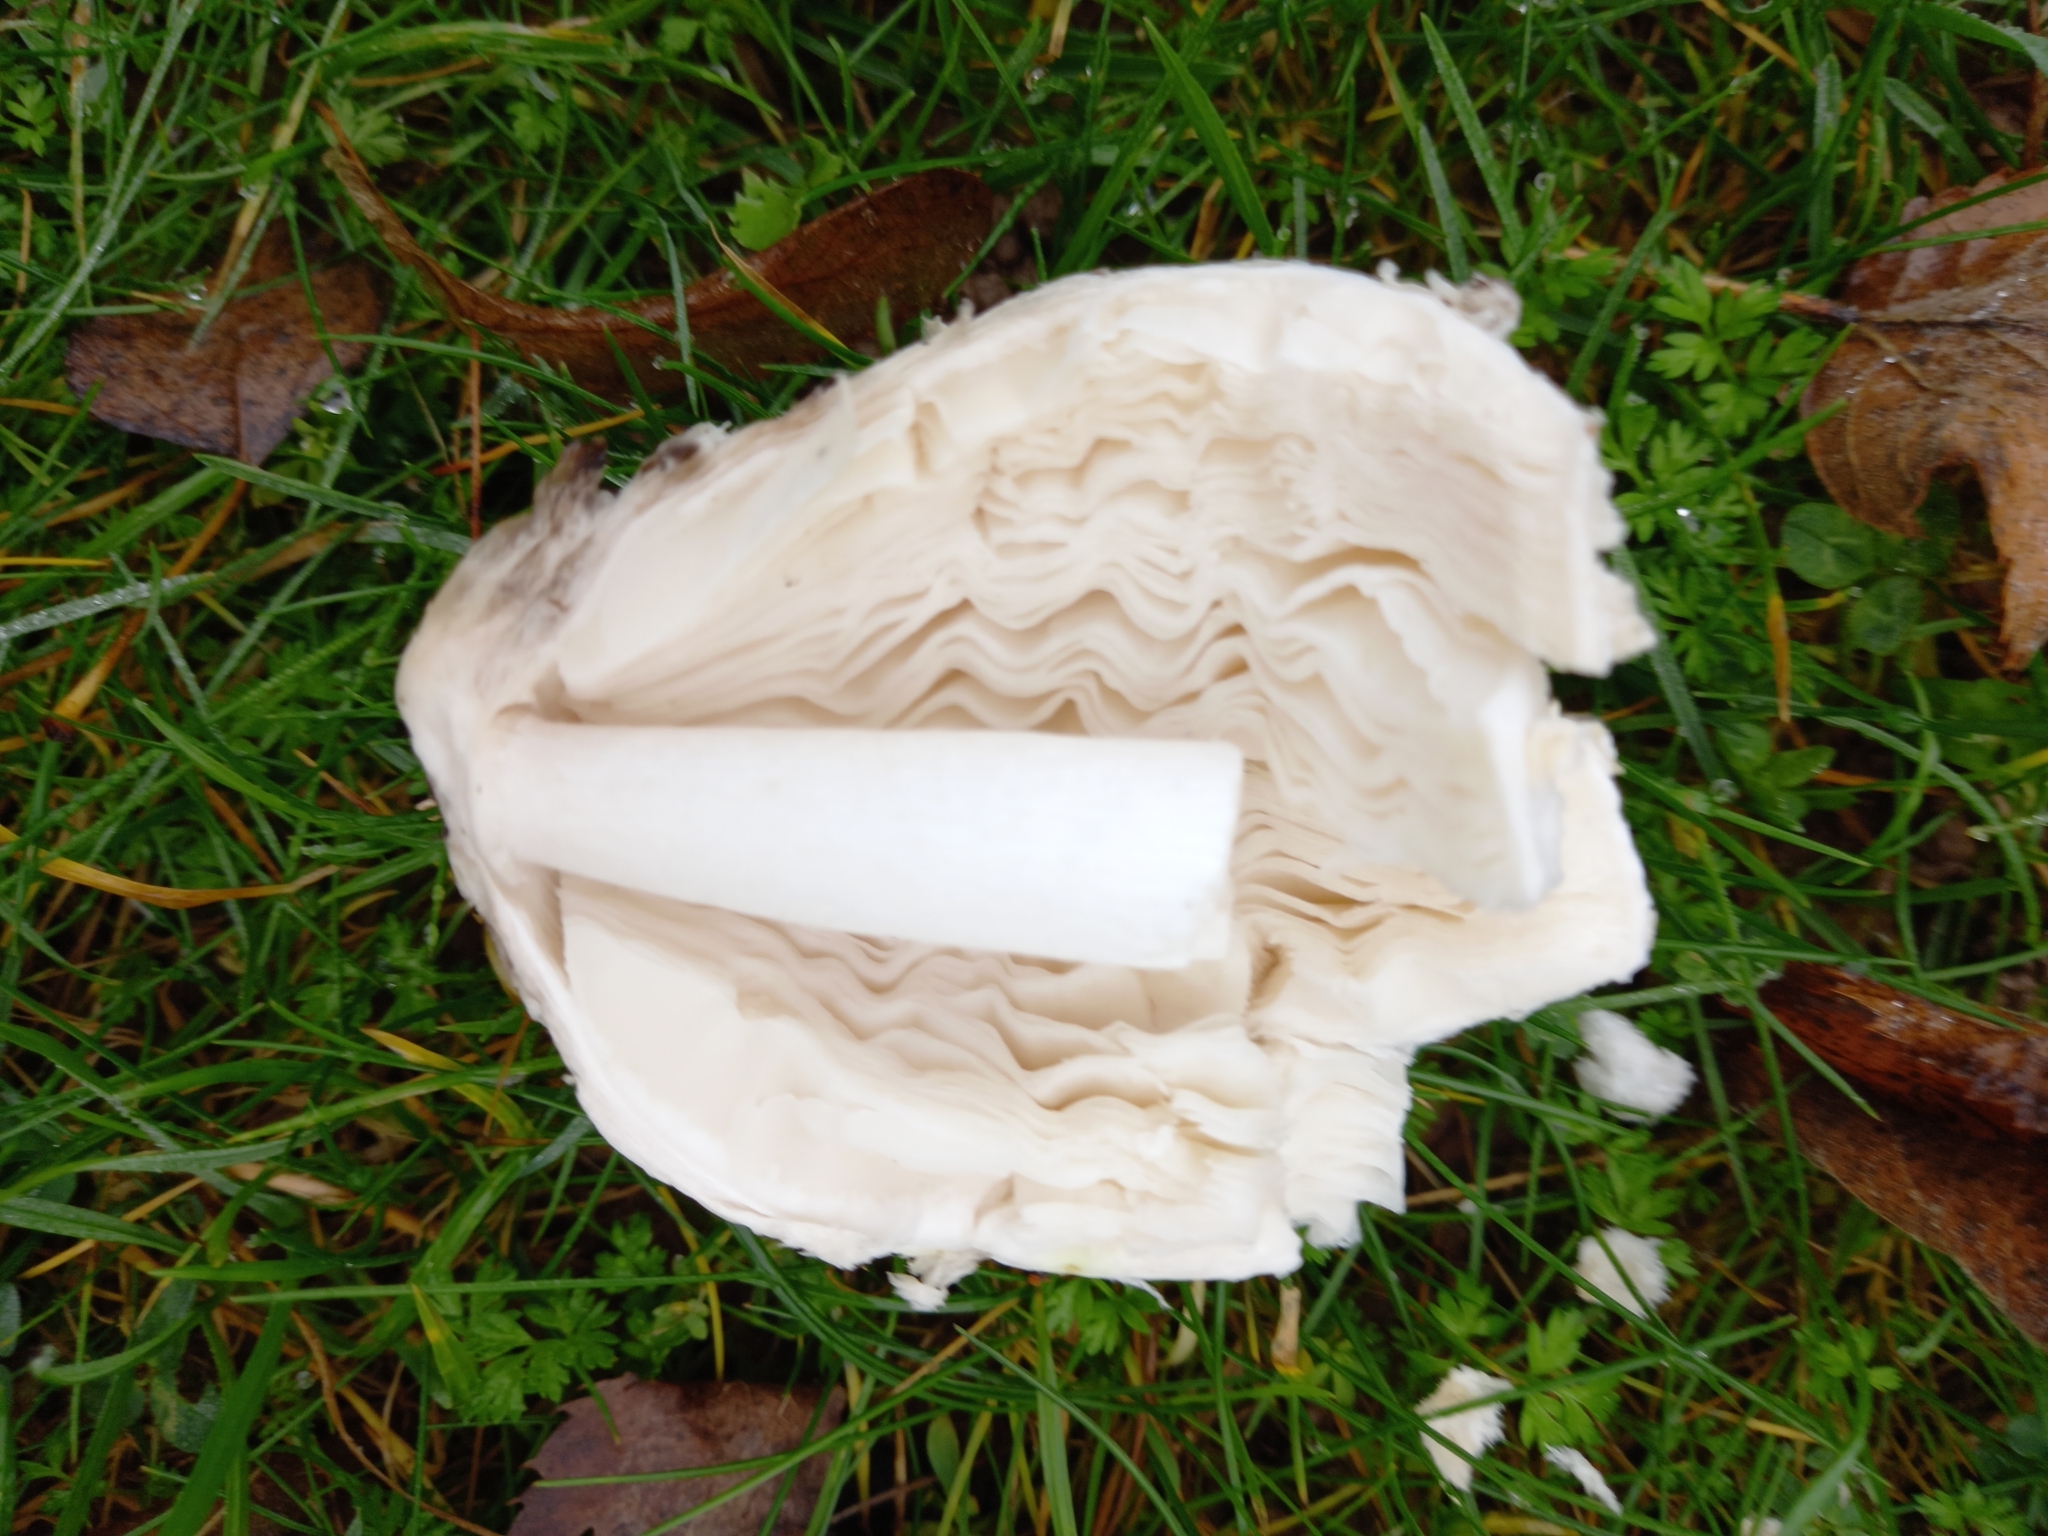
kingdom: Fungi
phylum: Basidiomycota
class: Agaricomycetes
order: Agaricales
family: Agaricaceae
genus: Coprinus
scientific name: Coprinus comatus
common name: Lawyer's wig
